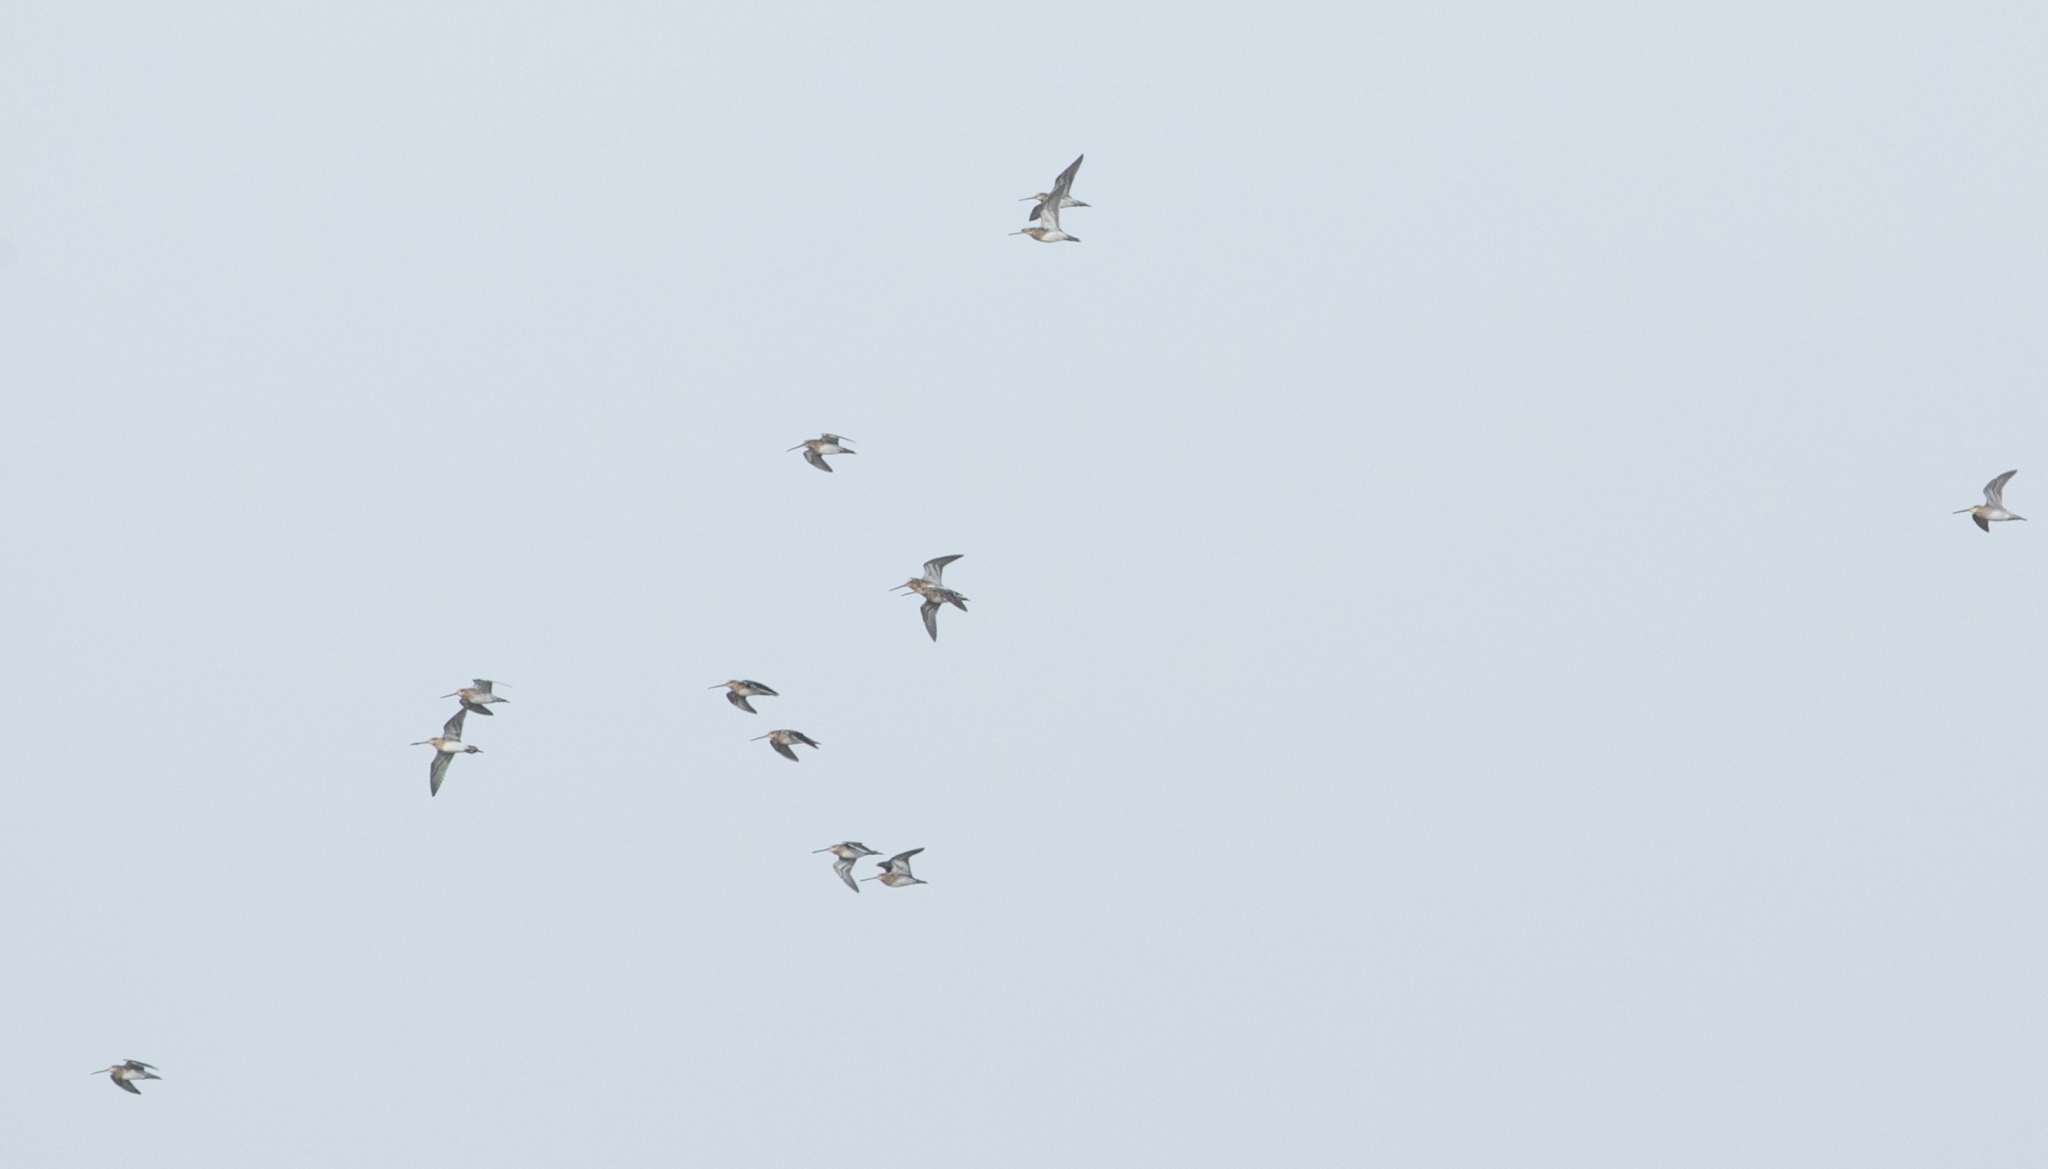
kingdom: Animalia
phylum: Chordata
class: Aves
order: Charadriiformes
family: Scolopacidae
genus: Gallinago
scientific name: Gallinago gallinago
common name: Common snipe
